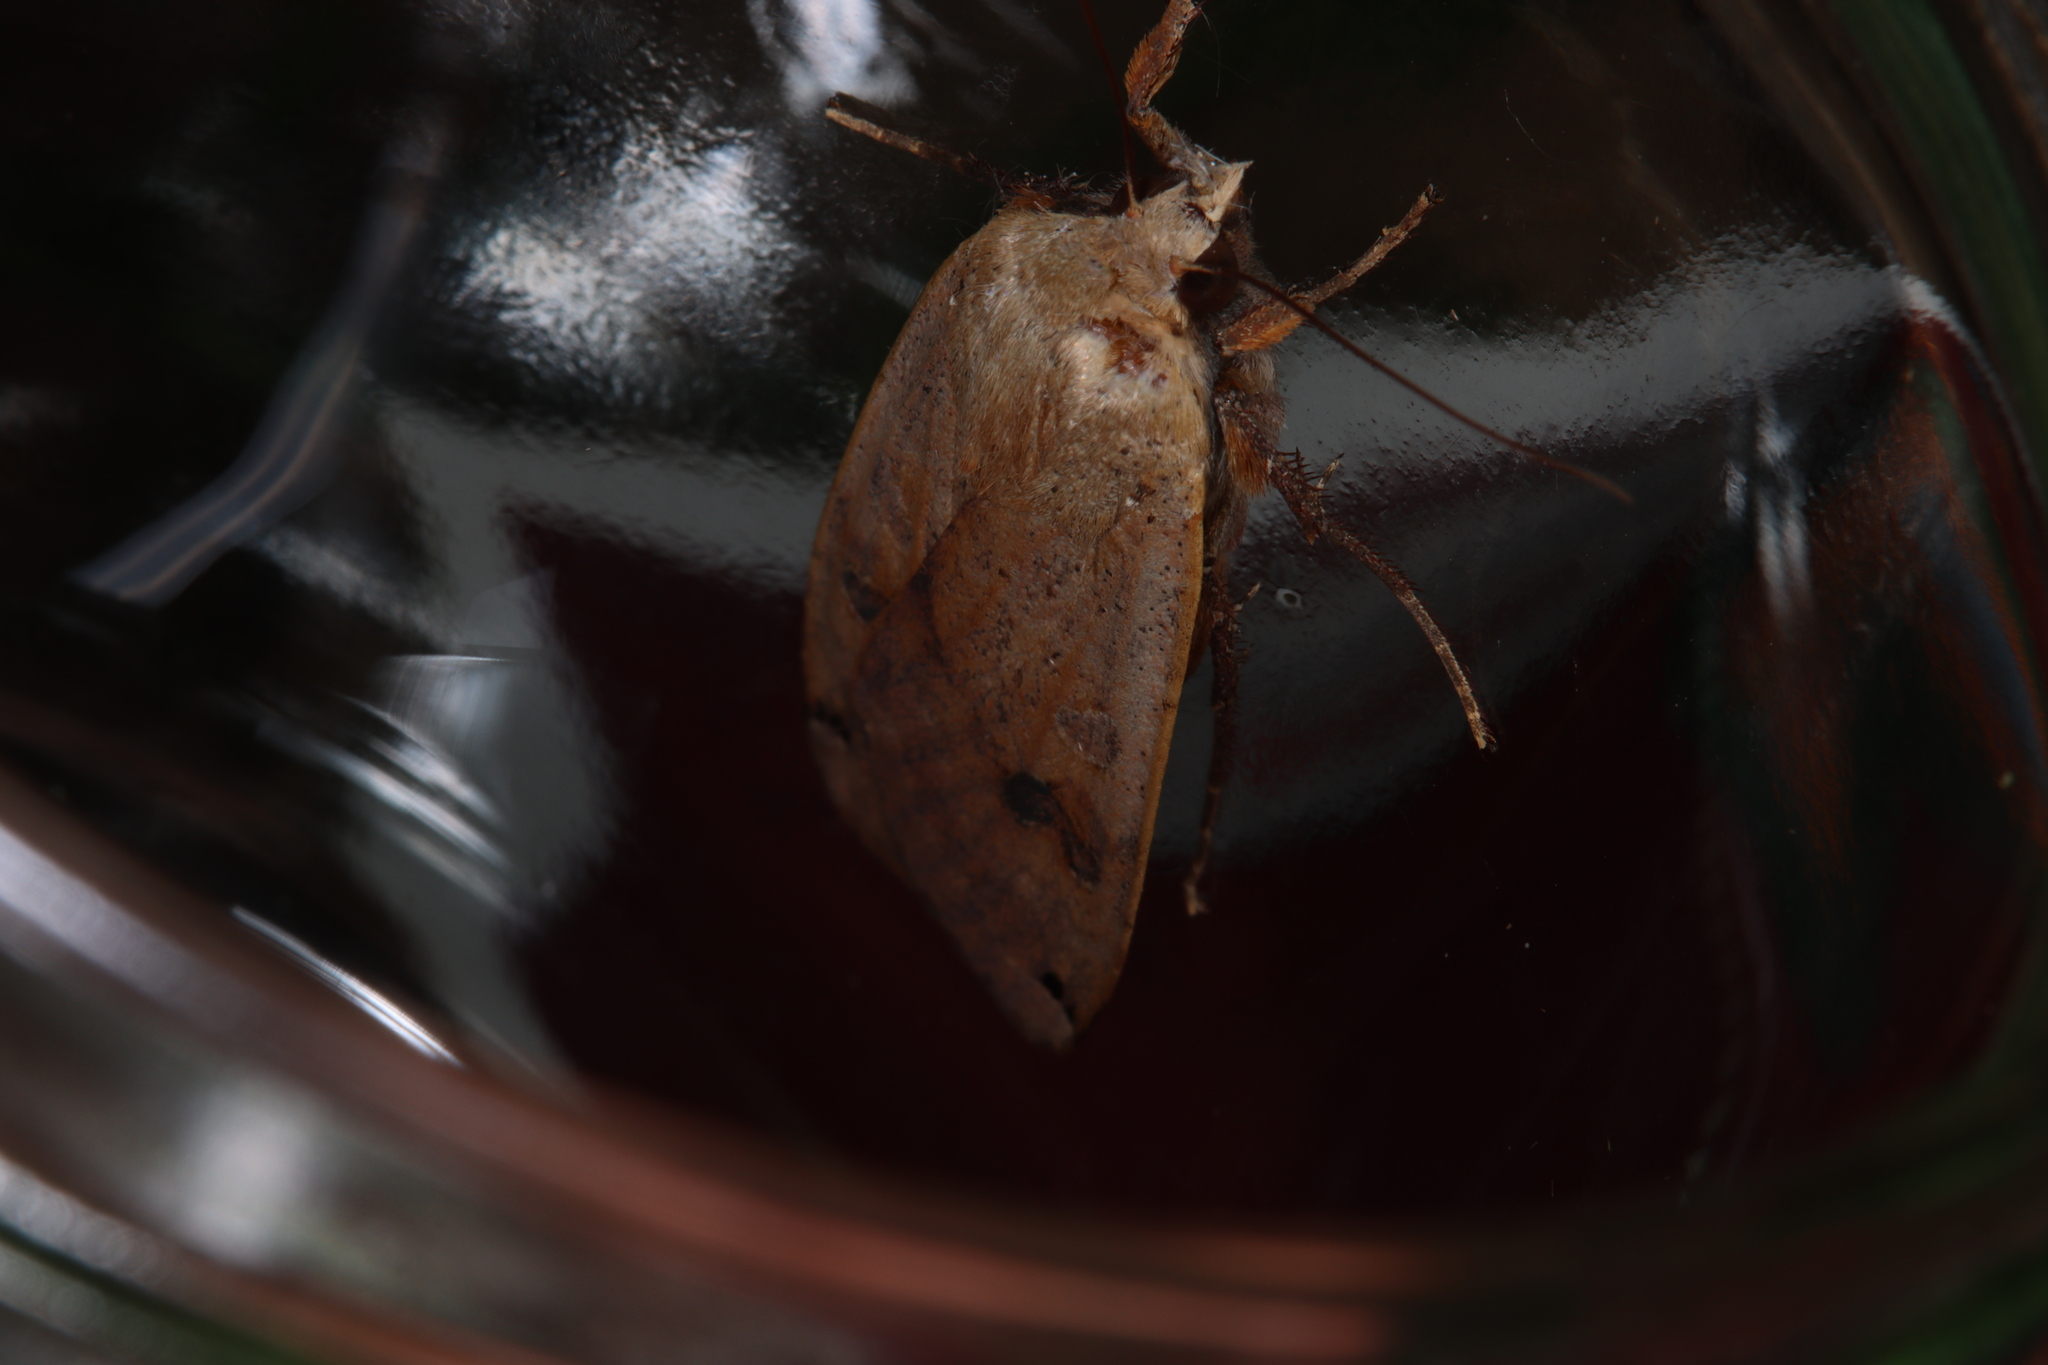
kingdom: Animalia
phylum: Arthropoda
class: Insecta
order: Lepidoptera
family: Noctuidae
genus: Noctua
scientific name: Noctua pronuba
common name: Large yellow underwing
